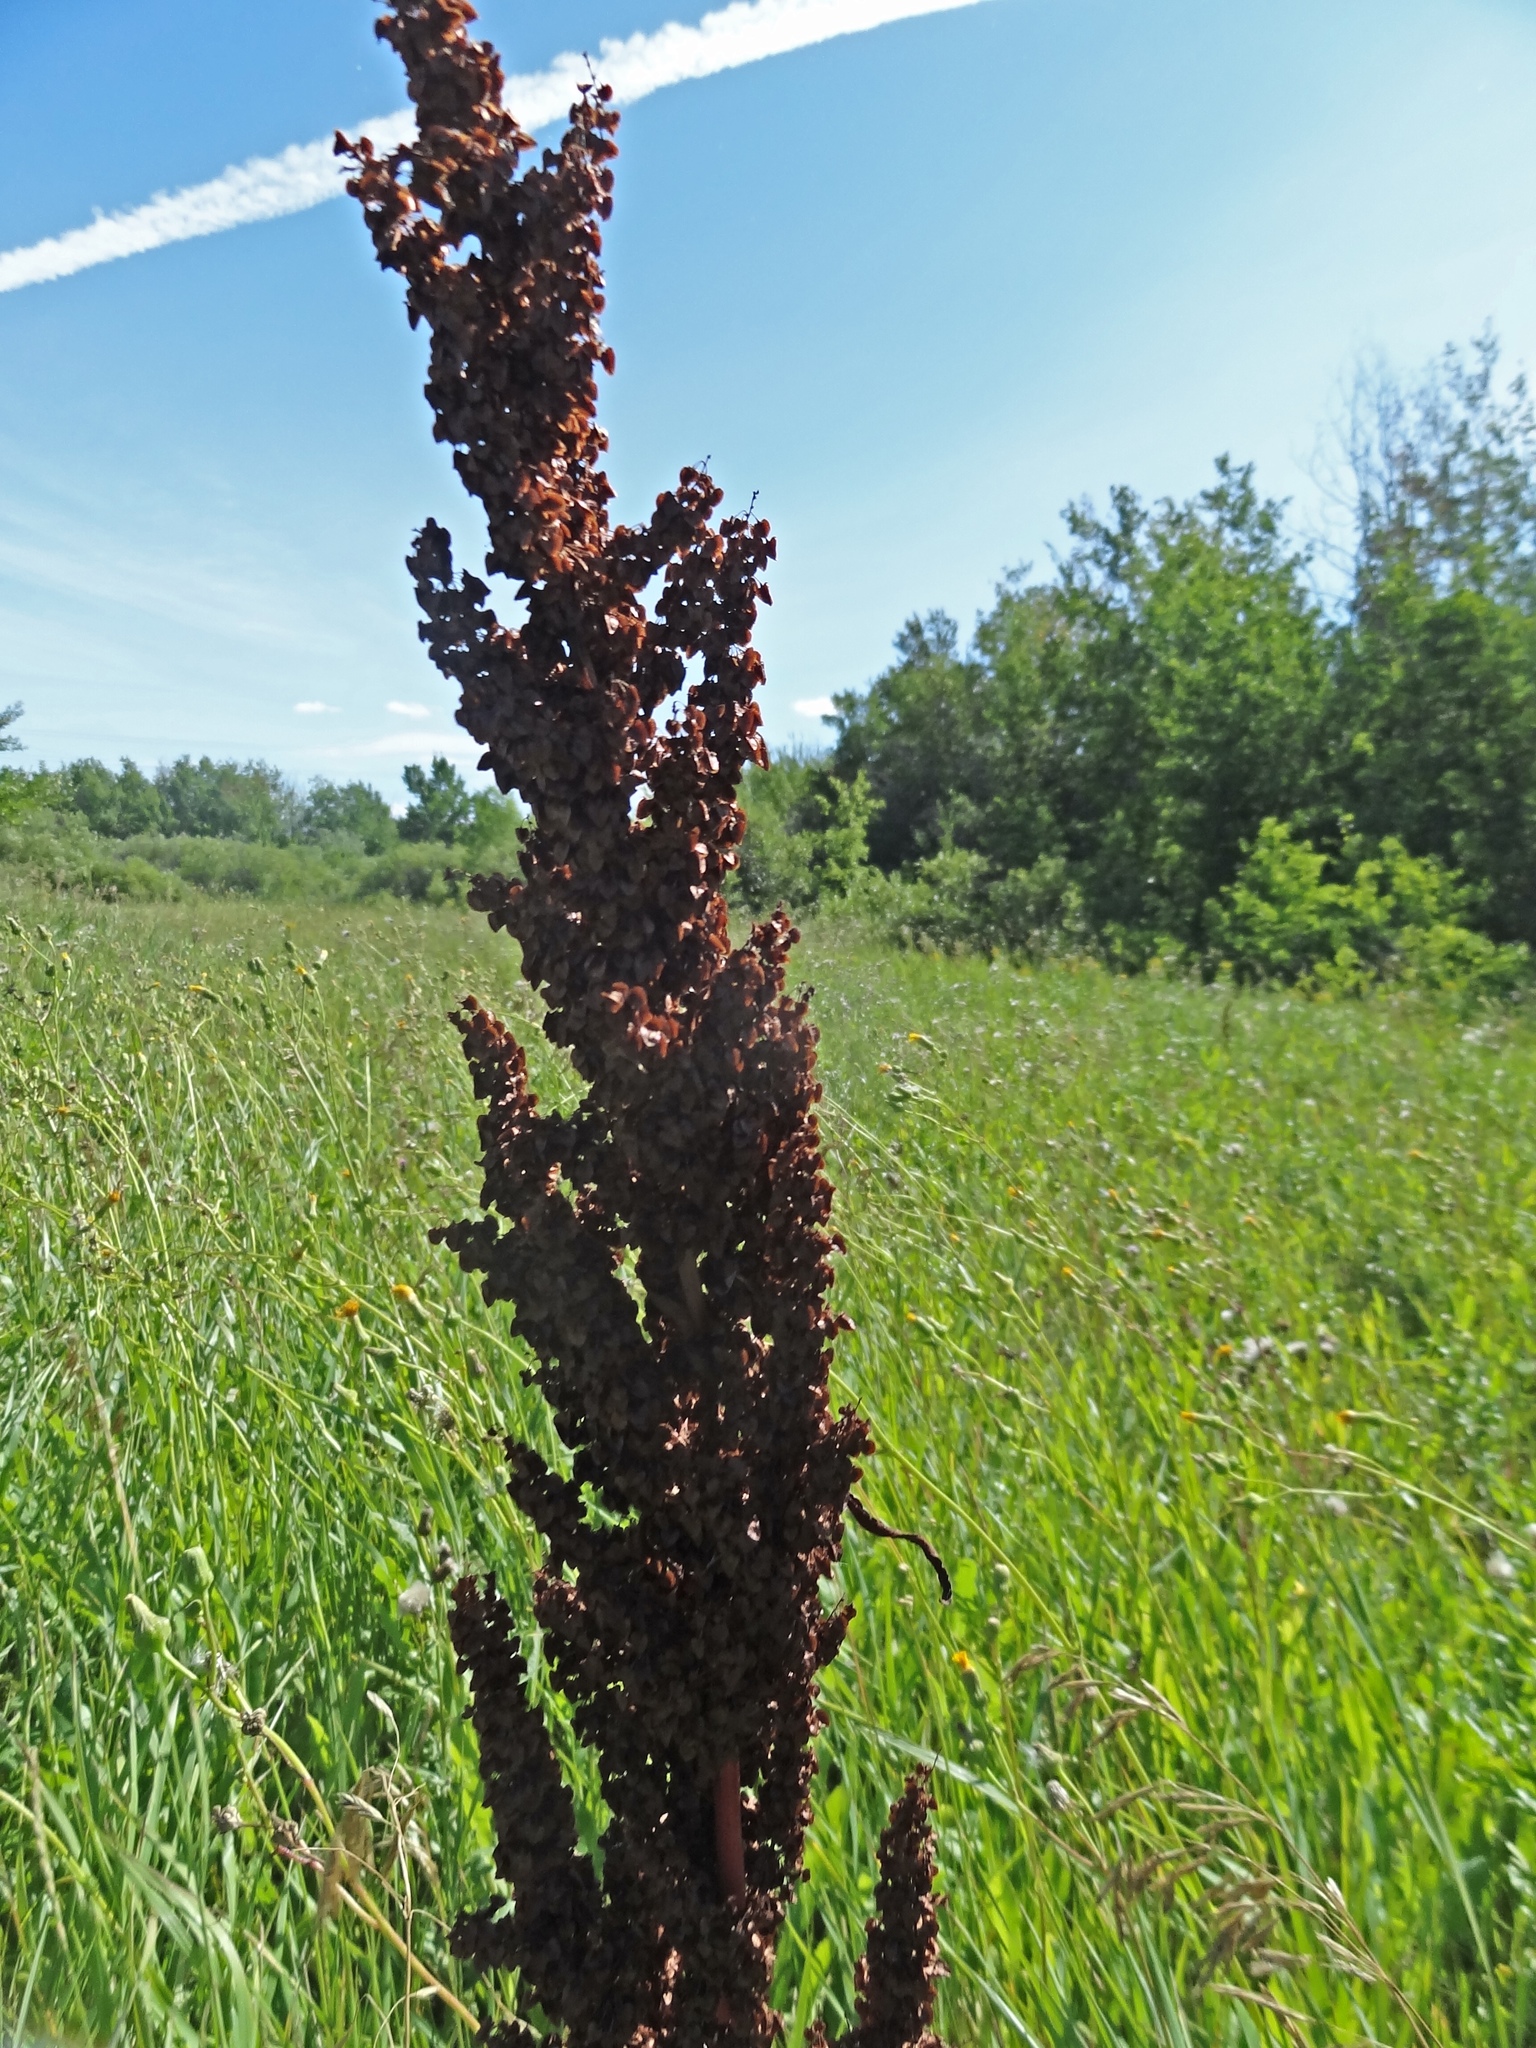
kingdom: Plantae
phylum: Tracheophyta
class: Magnoliopsida
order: Caryophyllales
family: Polygonaceae
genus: Rumex
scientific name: Rumex crispus
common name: Curled dock
